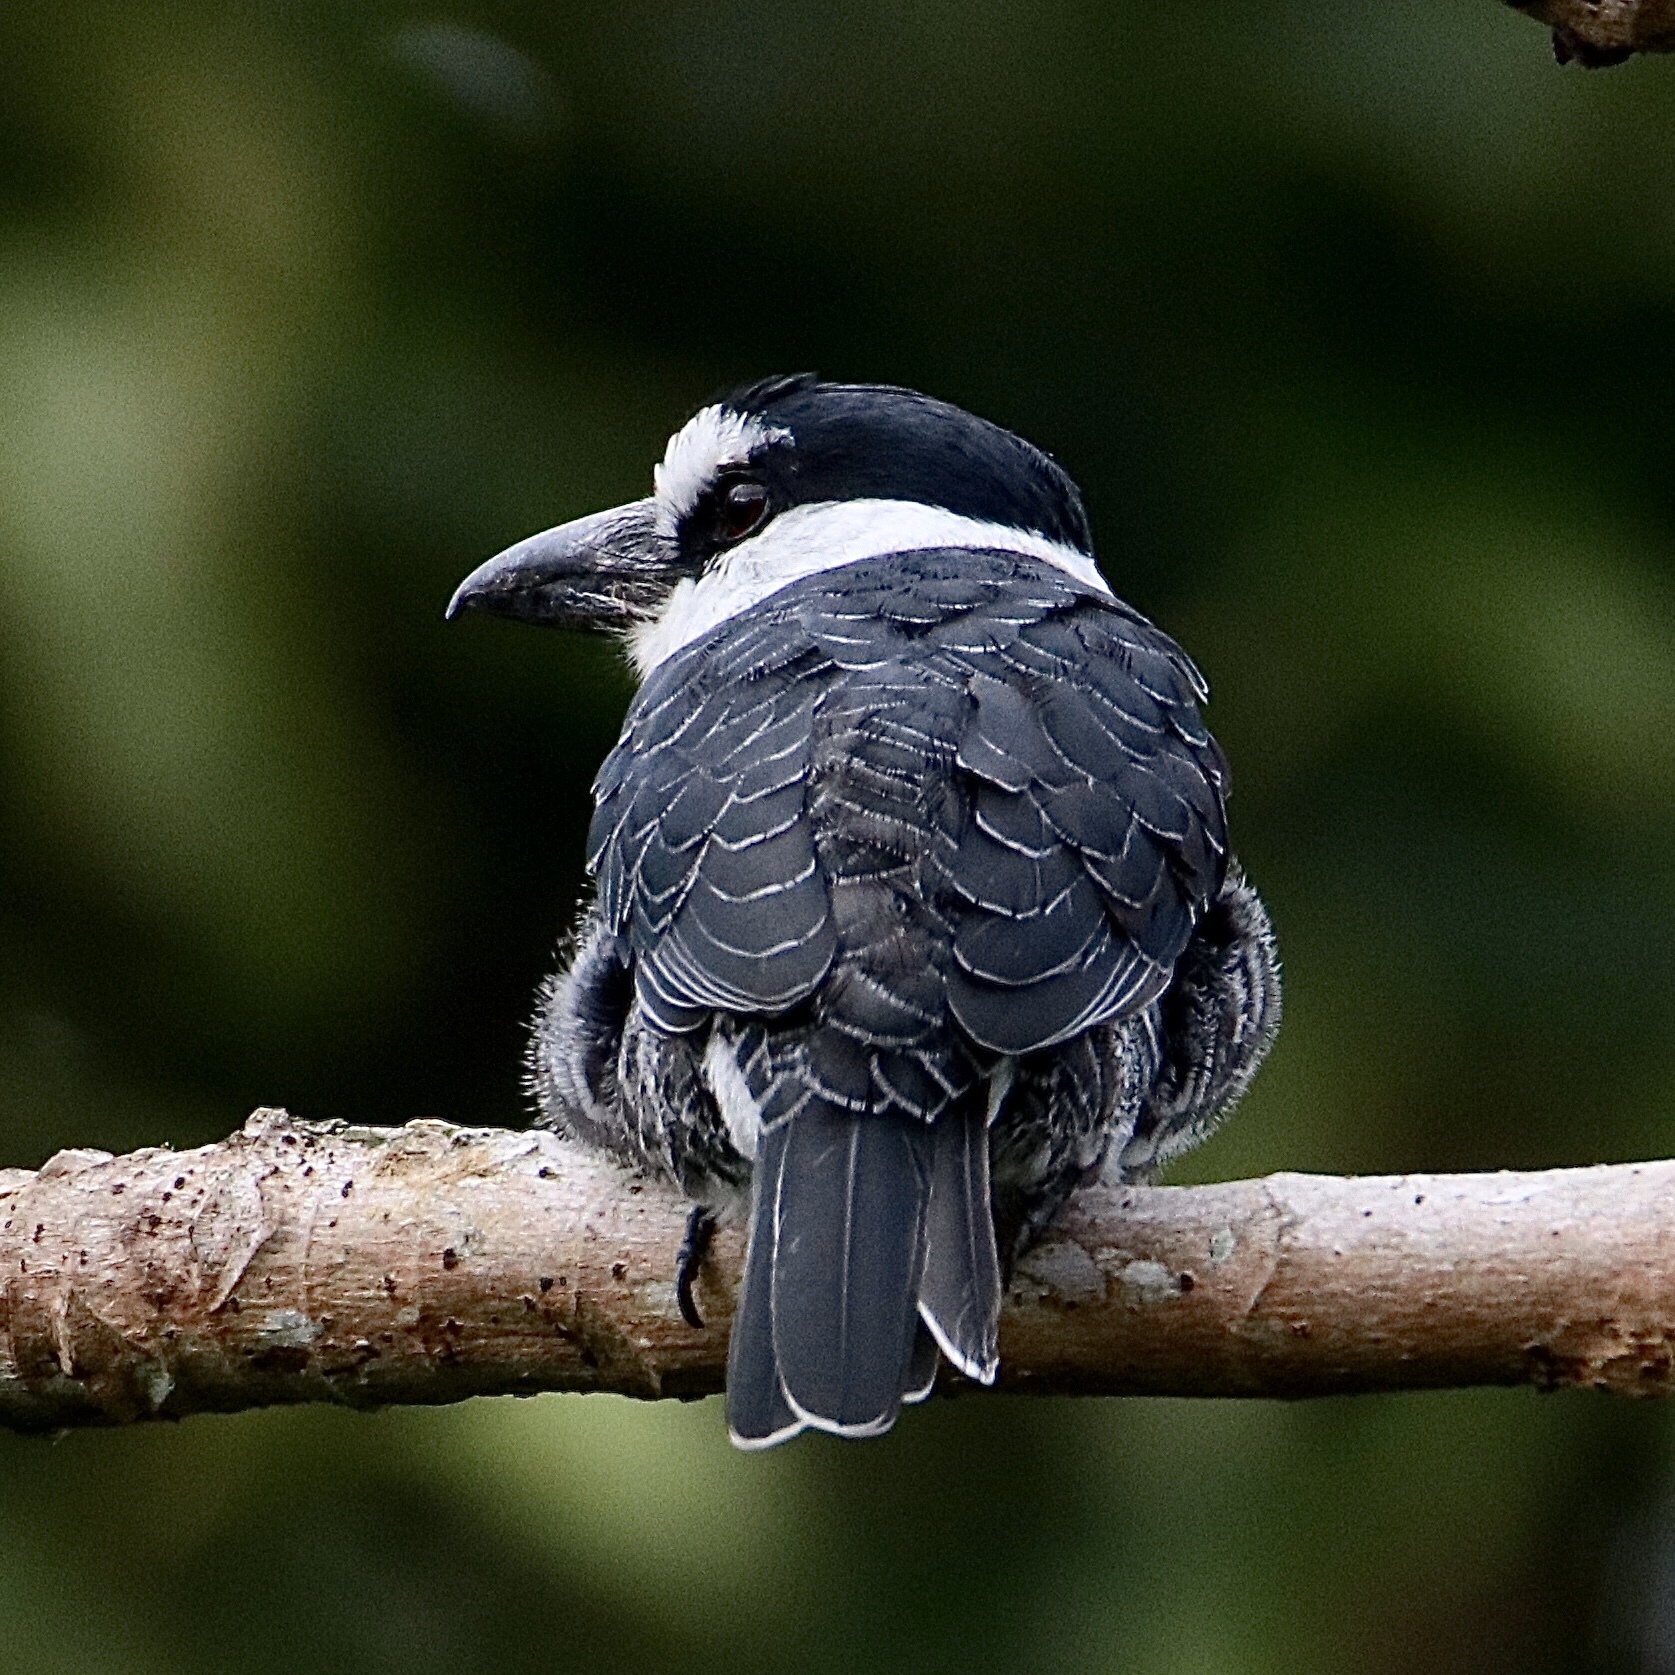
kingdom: Animalia
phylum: Chordata
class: Aves
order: Piciformes
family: Bucconidae
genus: Notharchus
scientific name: Notharchus hyperrhynchus
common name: White-necked puffbird
